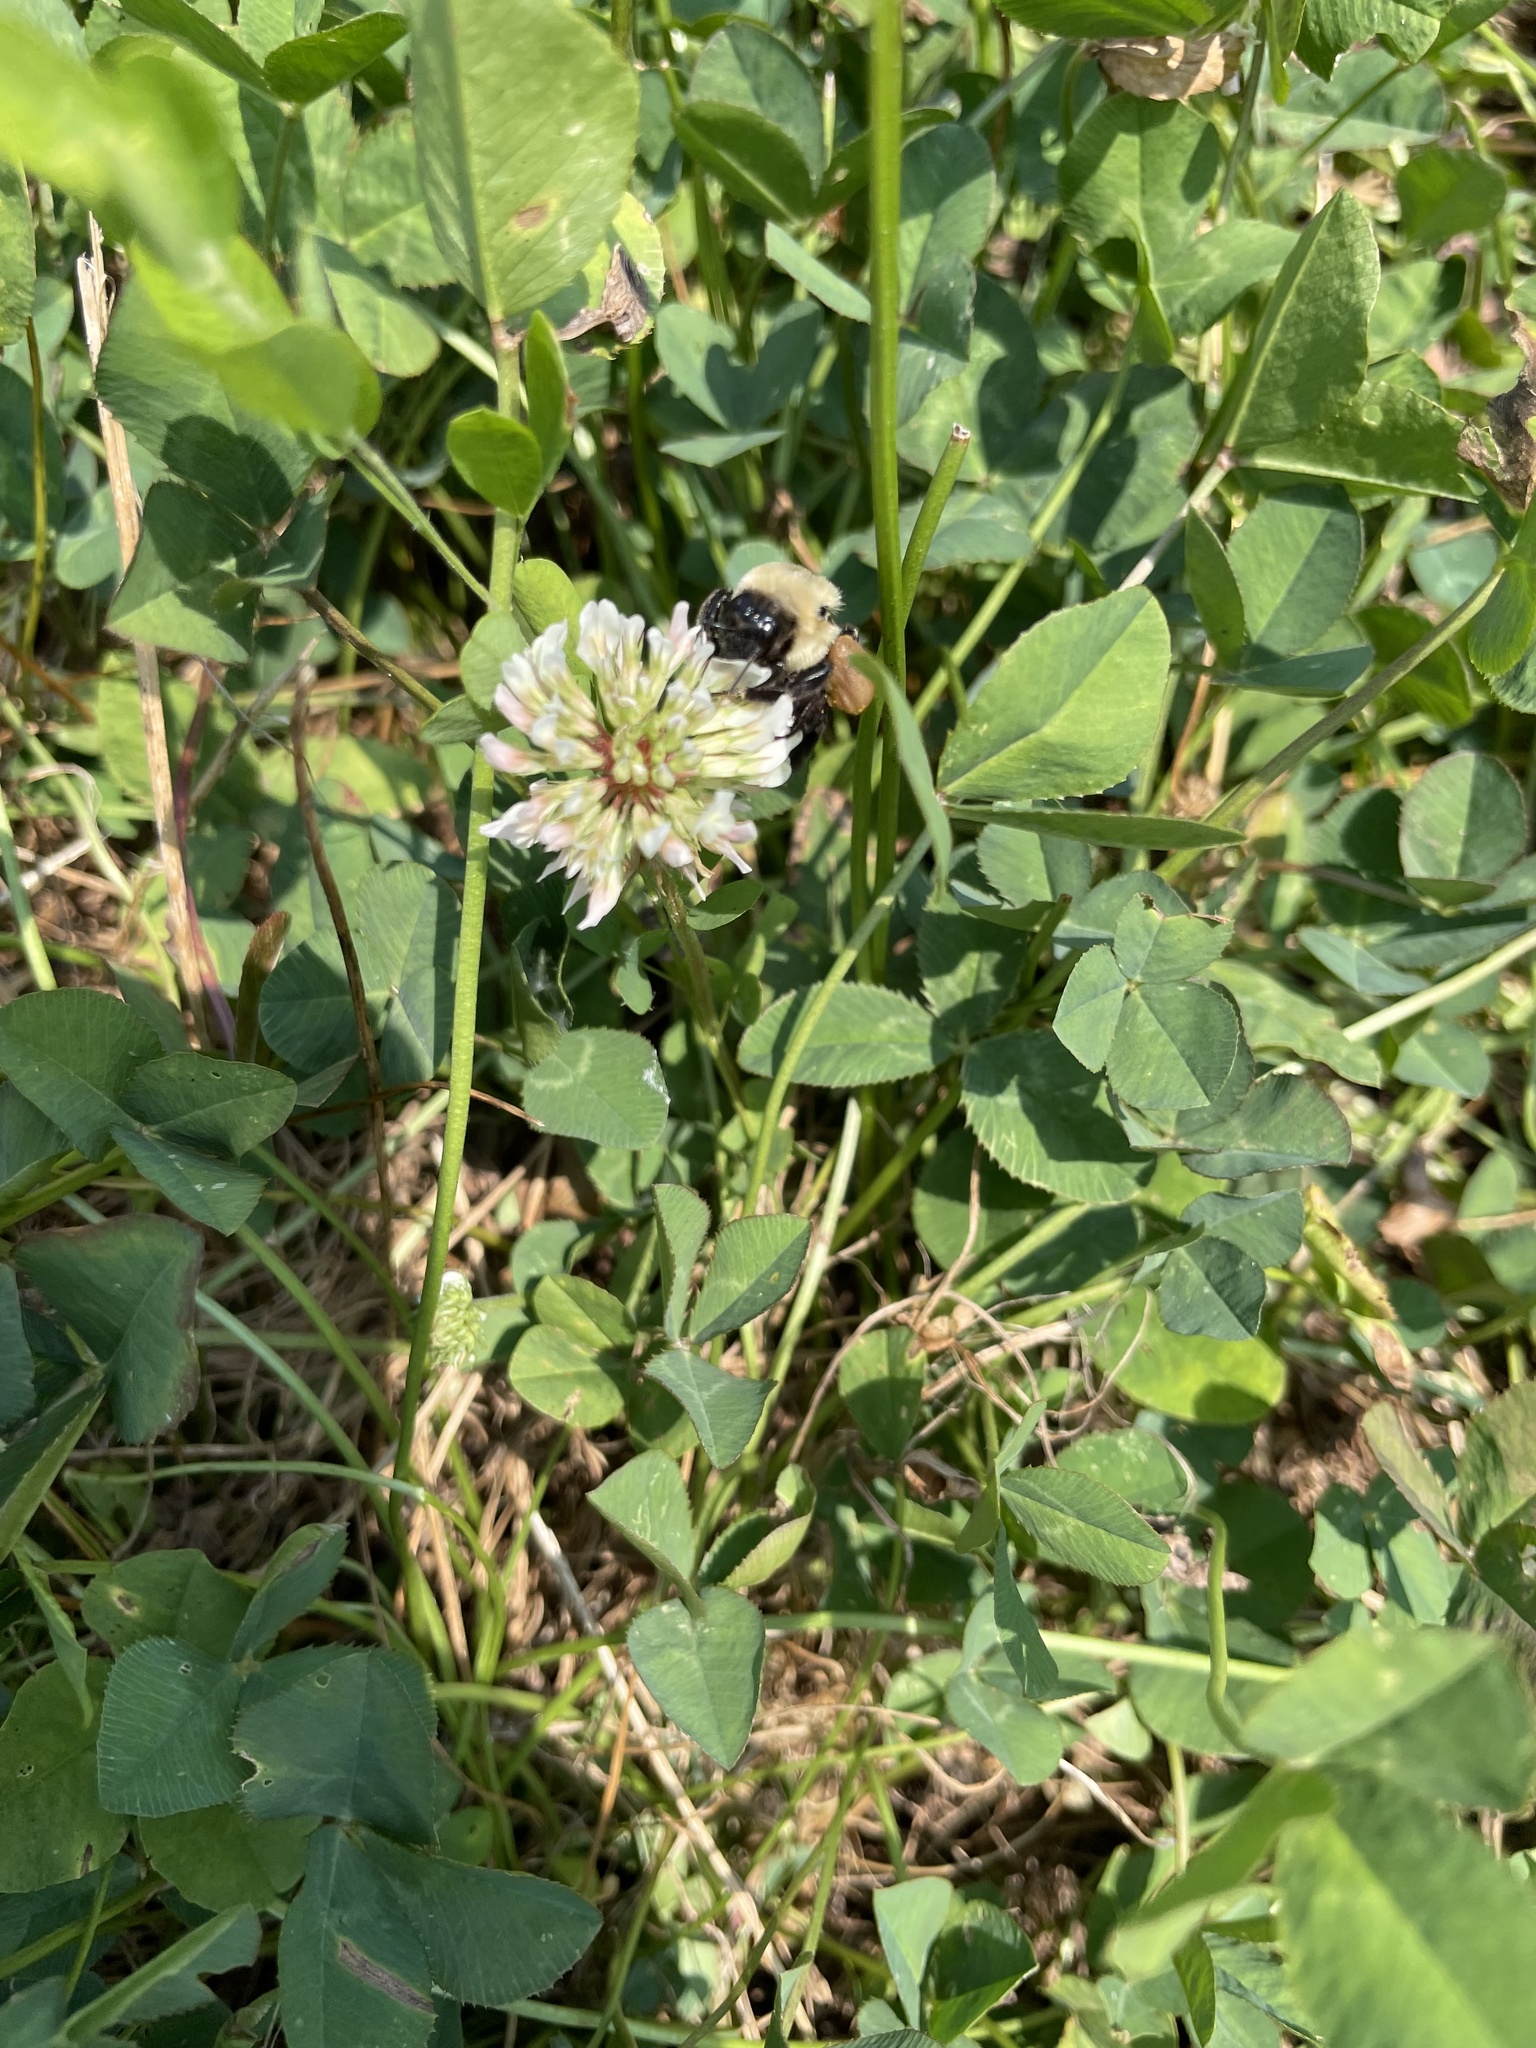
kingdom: Animalia
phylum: Arthropoda
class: Insecta
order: Hymenoptera
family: Apidae
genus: Bombus
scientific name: Bombus griseocollis
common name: Brown-belted bumble bee
